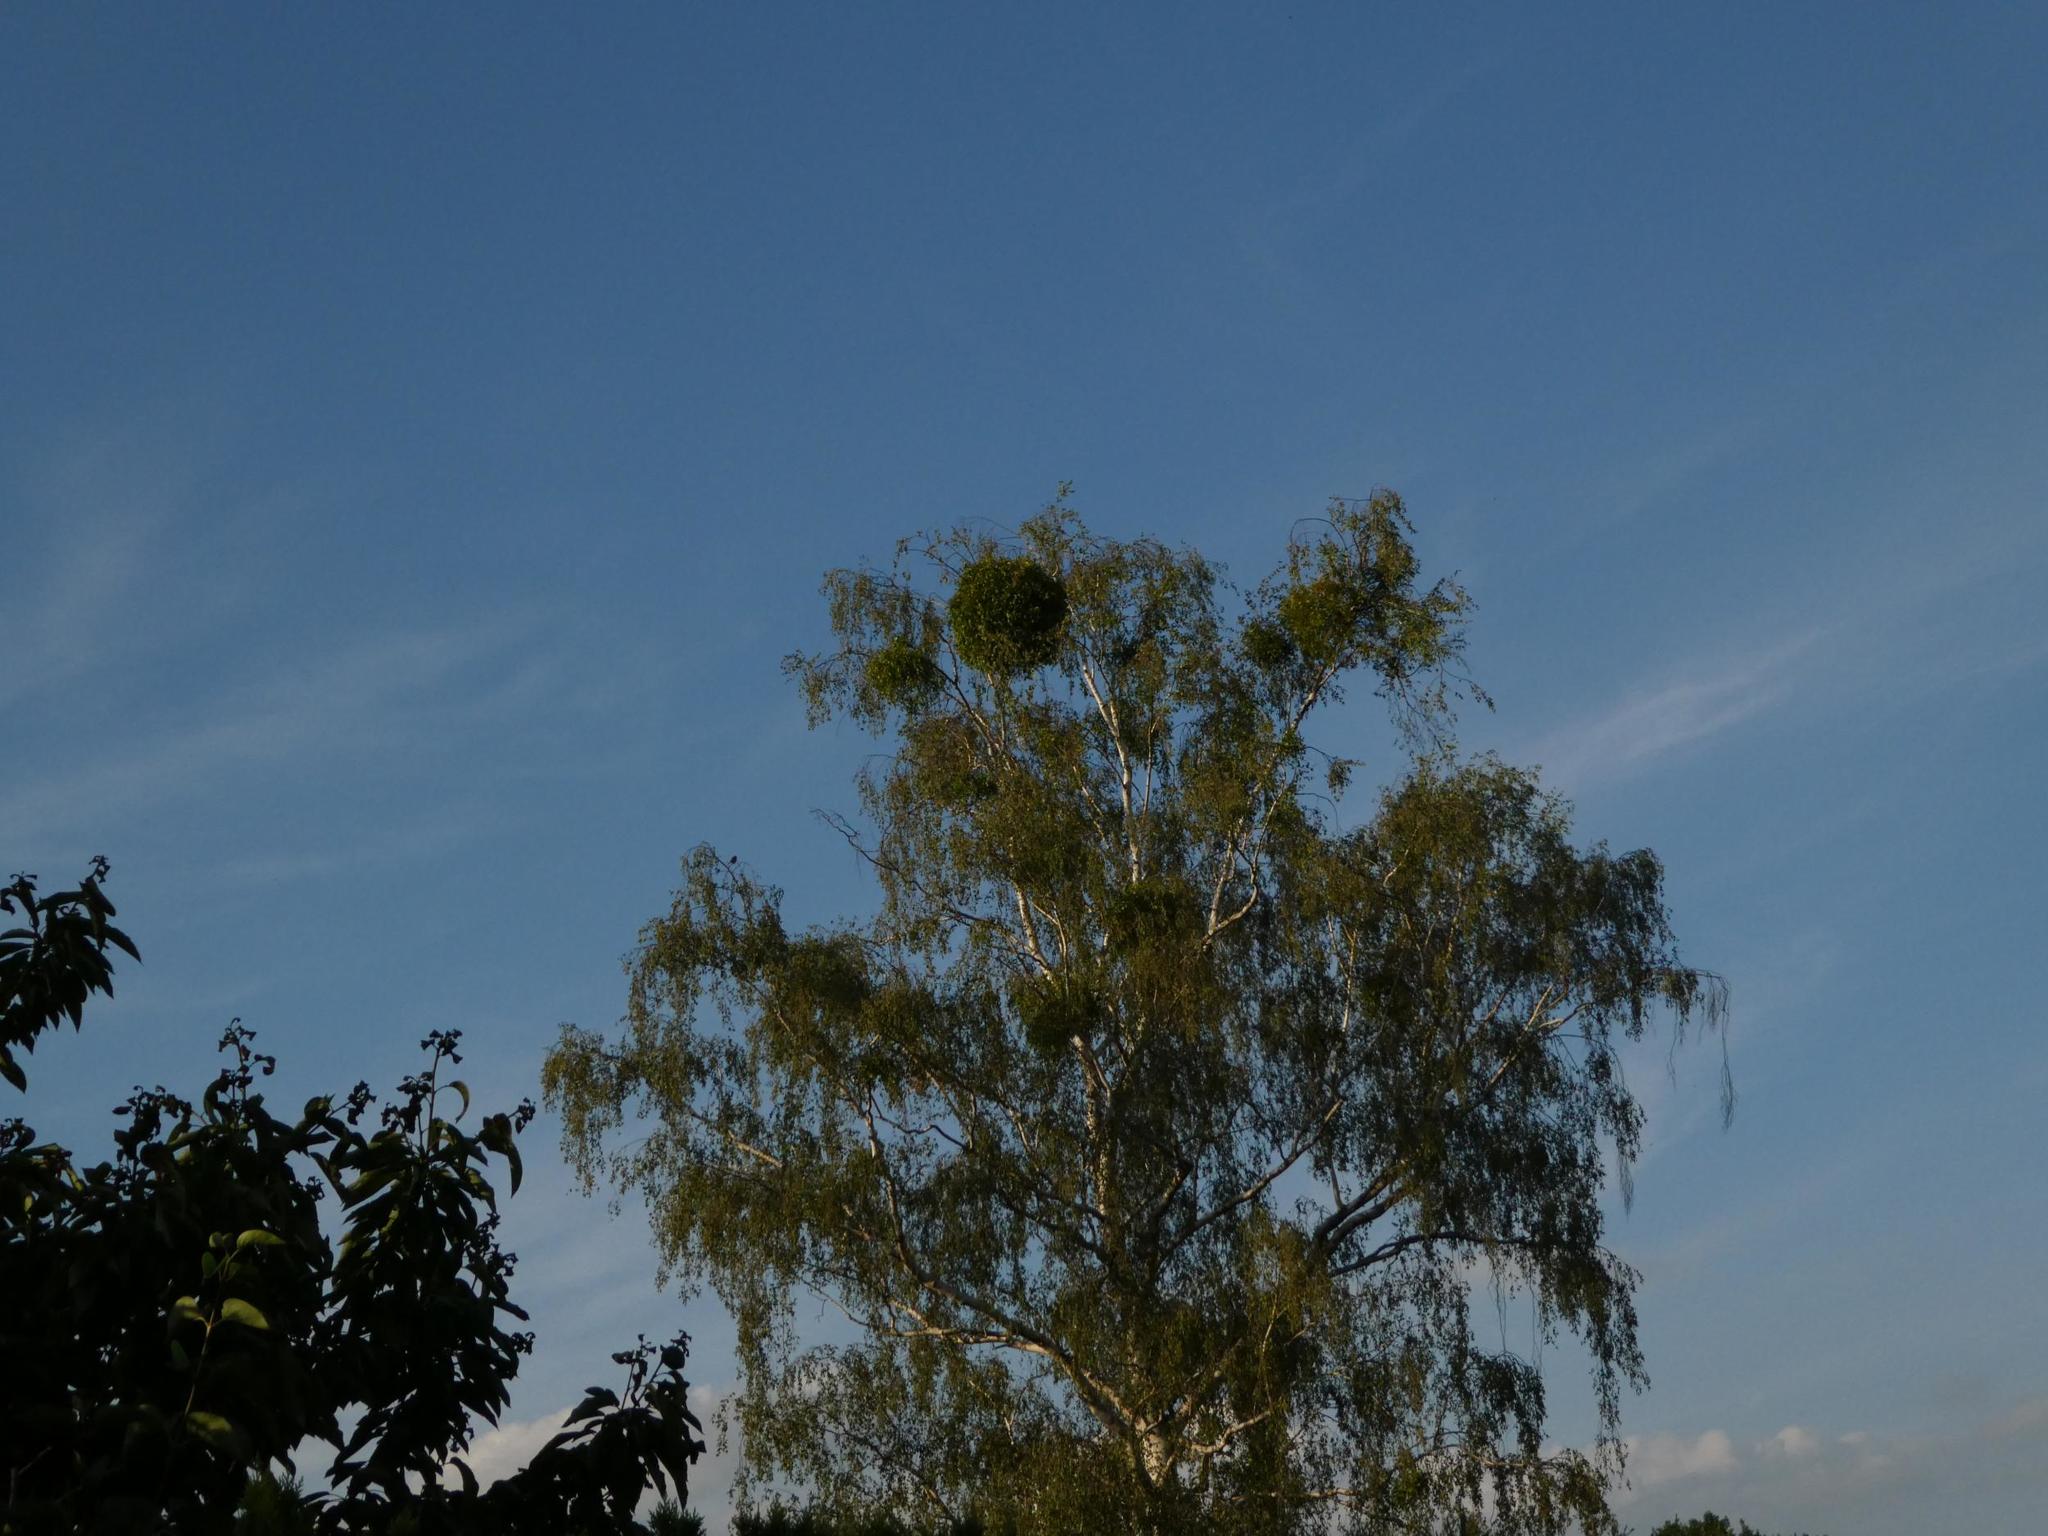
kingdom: Plantae
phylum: Tracheophyta
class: Magnoliopsida
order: Santalales
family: Viscaceae
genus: Viscum
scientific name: Viscum album
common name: Mistletoe
